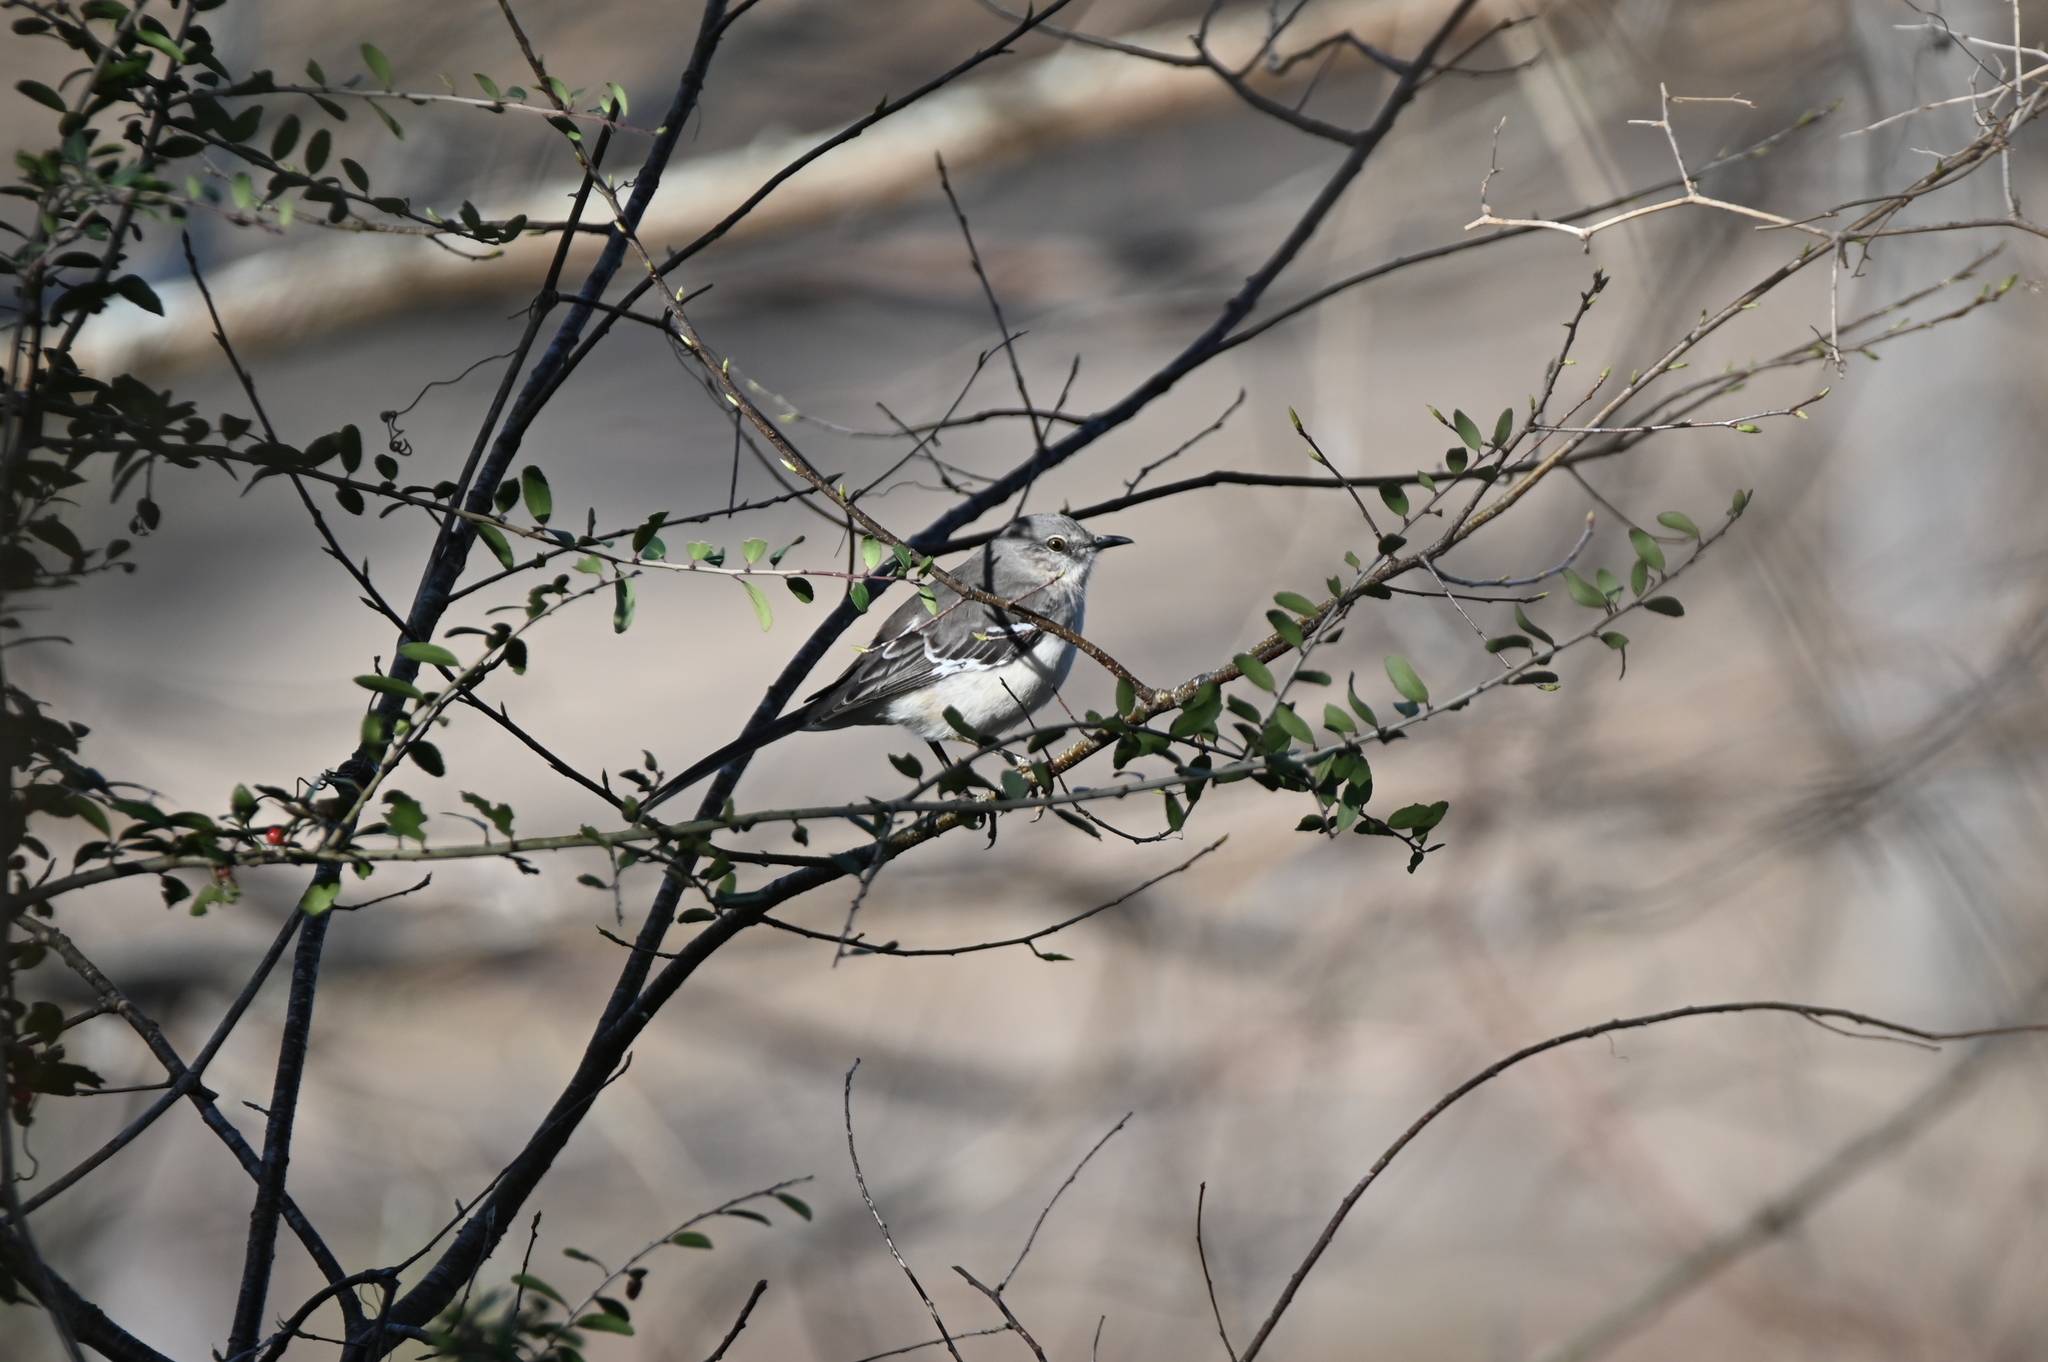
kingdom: Animalia
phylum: Chordata
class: Aves
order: Passeriformes
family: Mimidae
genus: Mimus
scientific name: Mimus polyglottos
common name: Northern mockingbird
